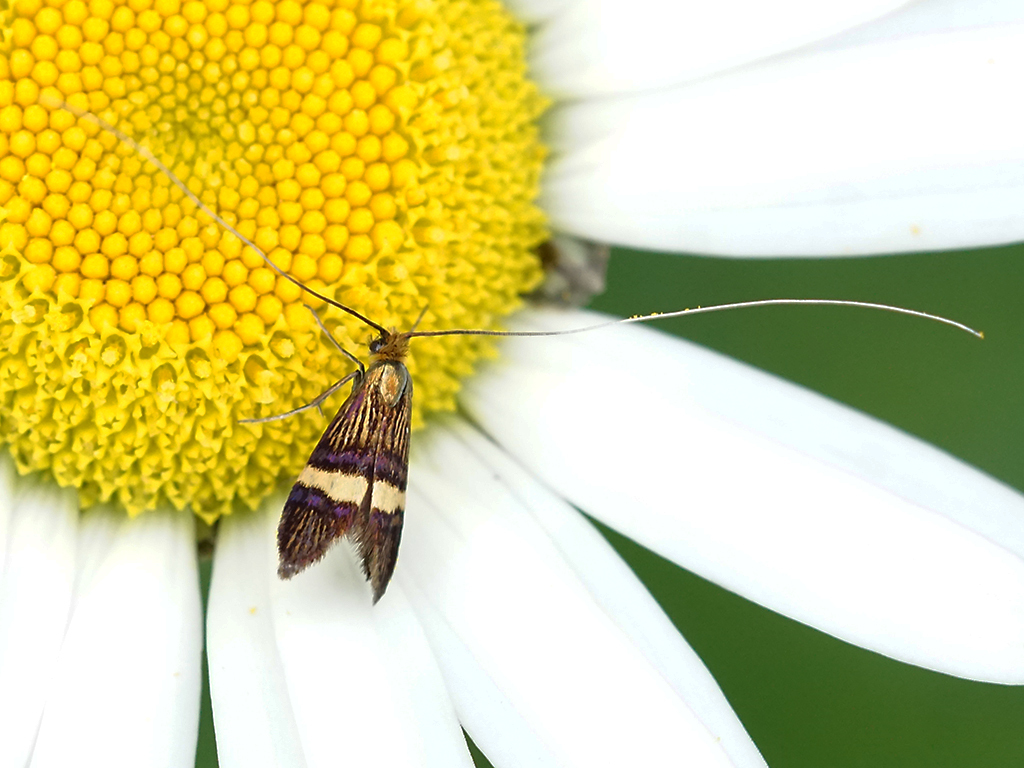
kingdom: Animalia
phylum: Arthropoda
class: Insecta
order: Lepidoptera
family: Adelidae
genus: Adela
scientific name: Adela croesella
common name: Small barred long-horn
